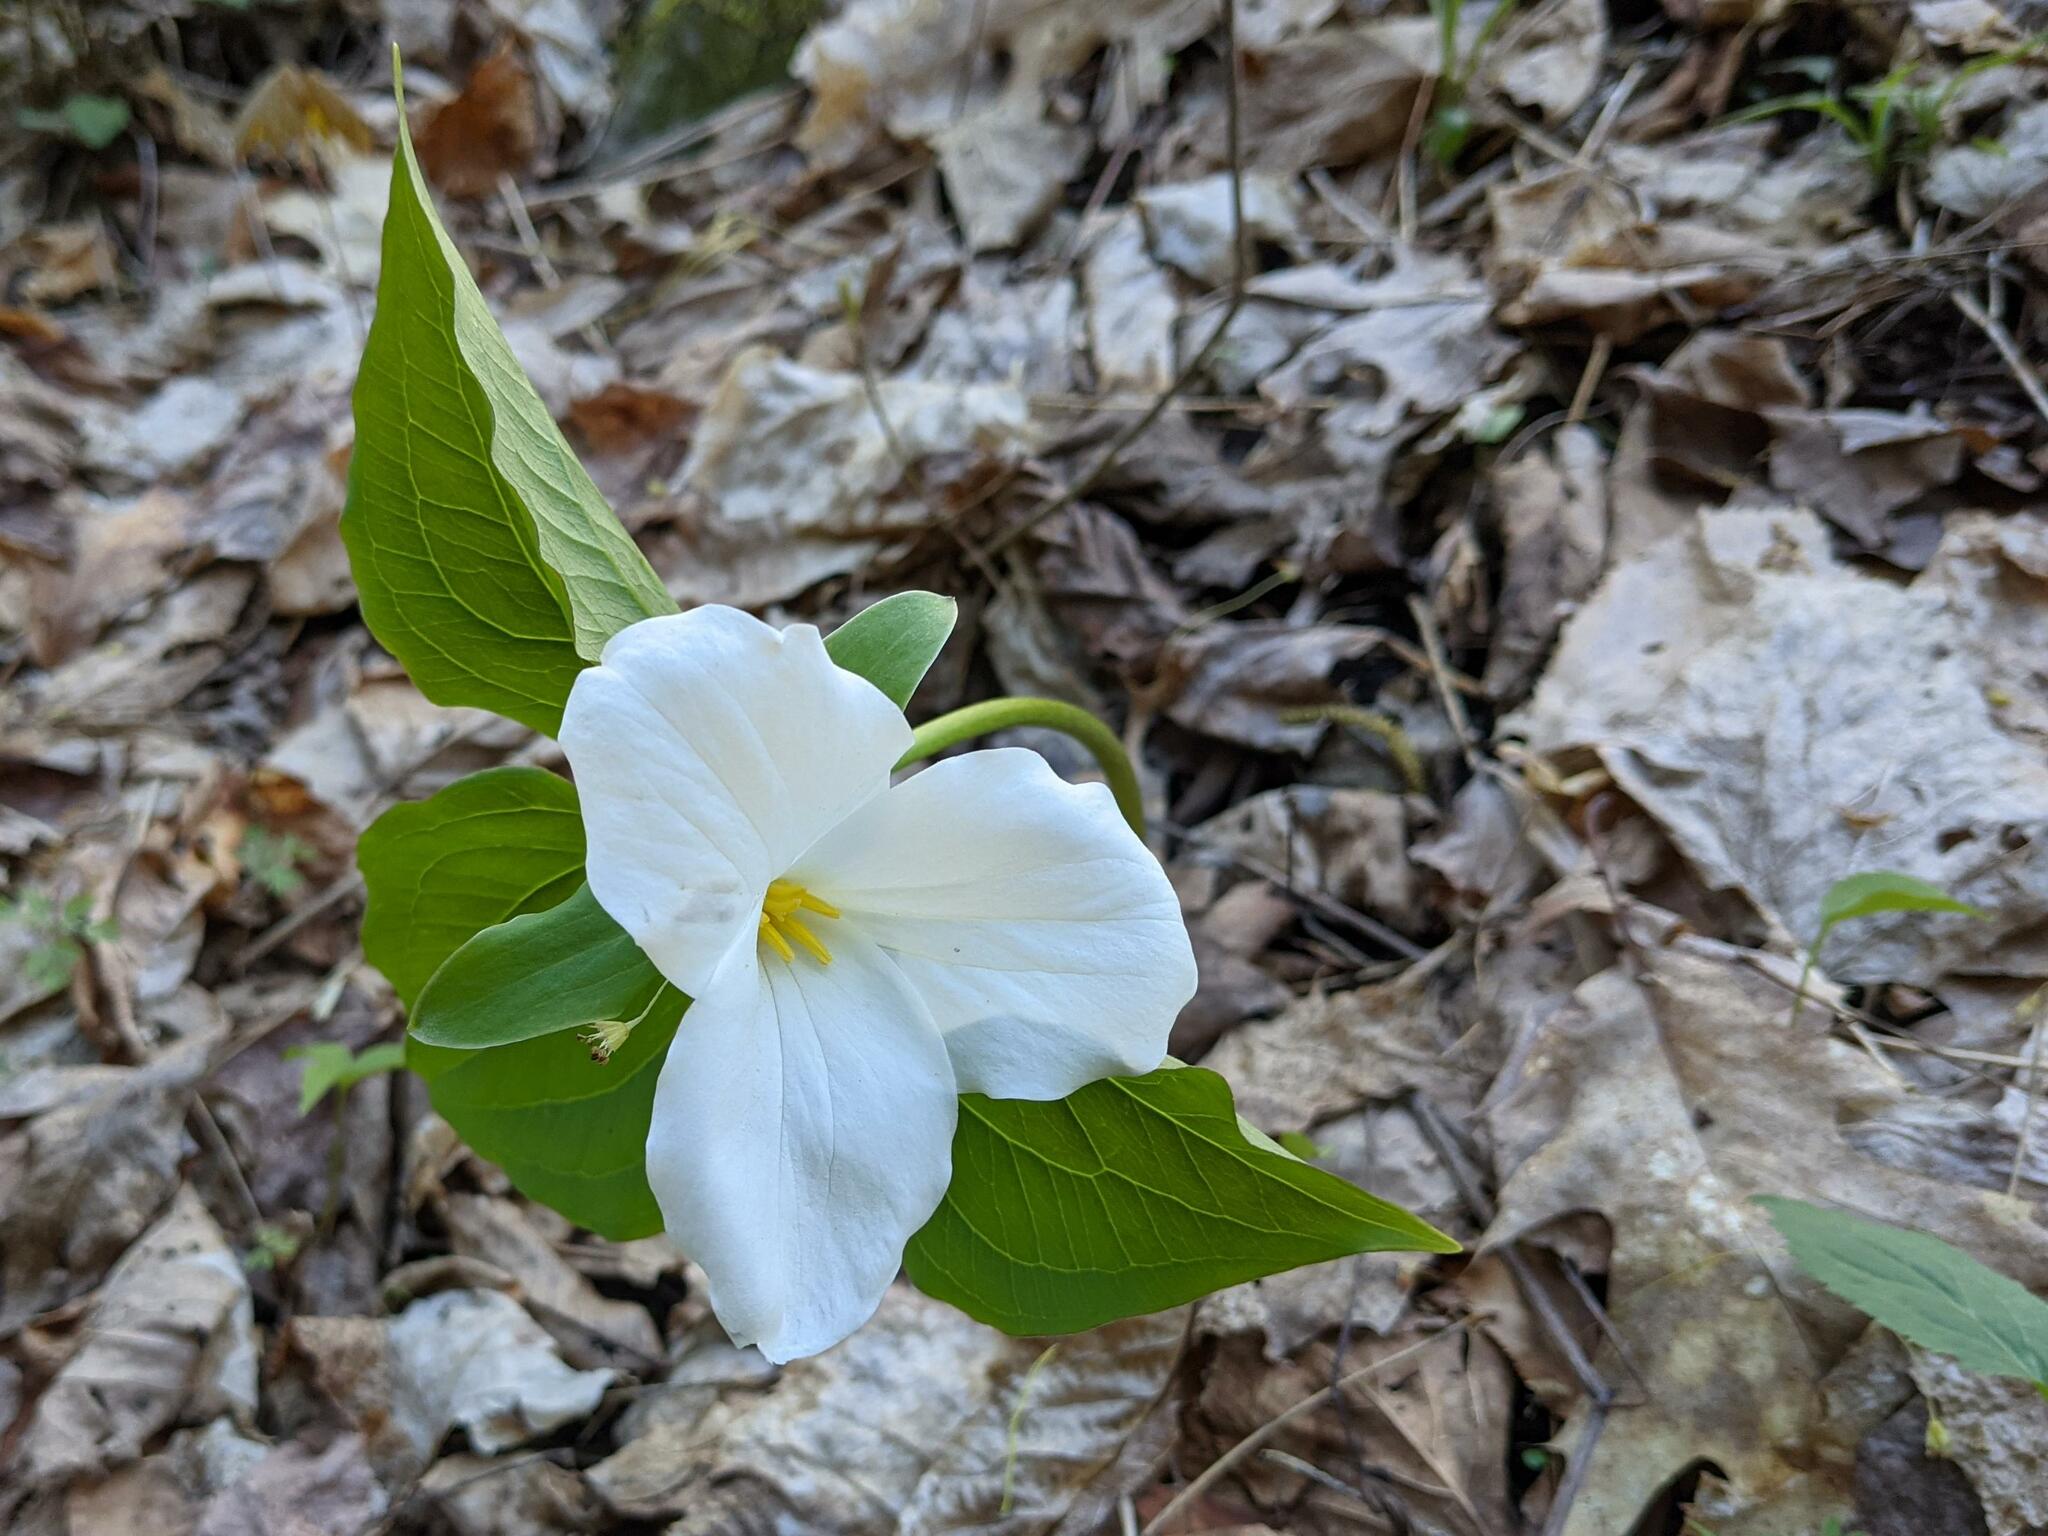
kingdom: Plantae
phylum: Tracheophyta
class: Liliopsida
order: Liliales
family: Melanthiaceae
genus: Trillium
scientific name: Trillium grandiflorum
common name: Great white trillium
